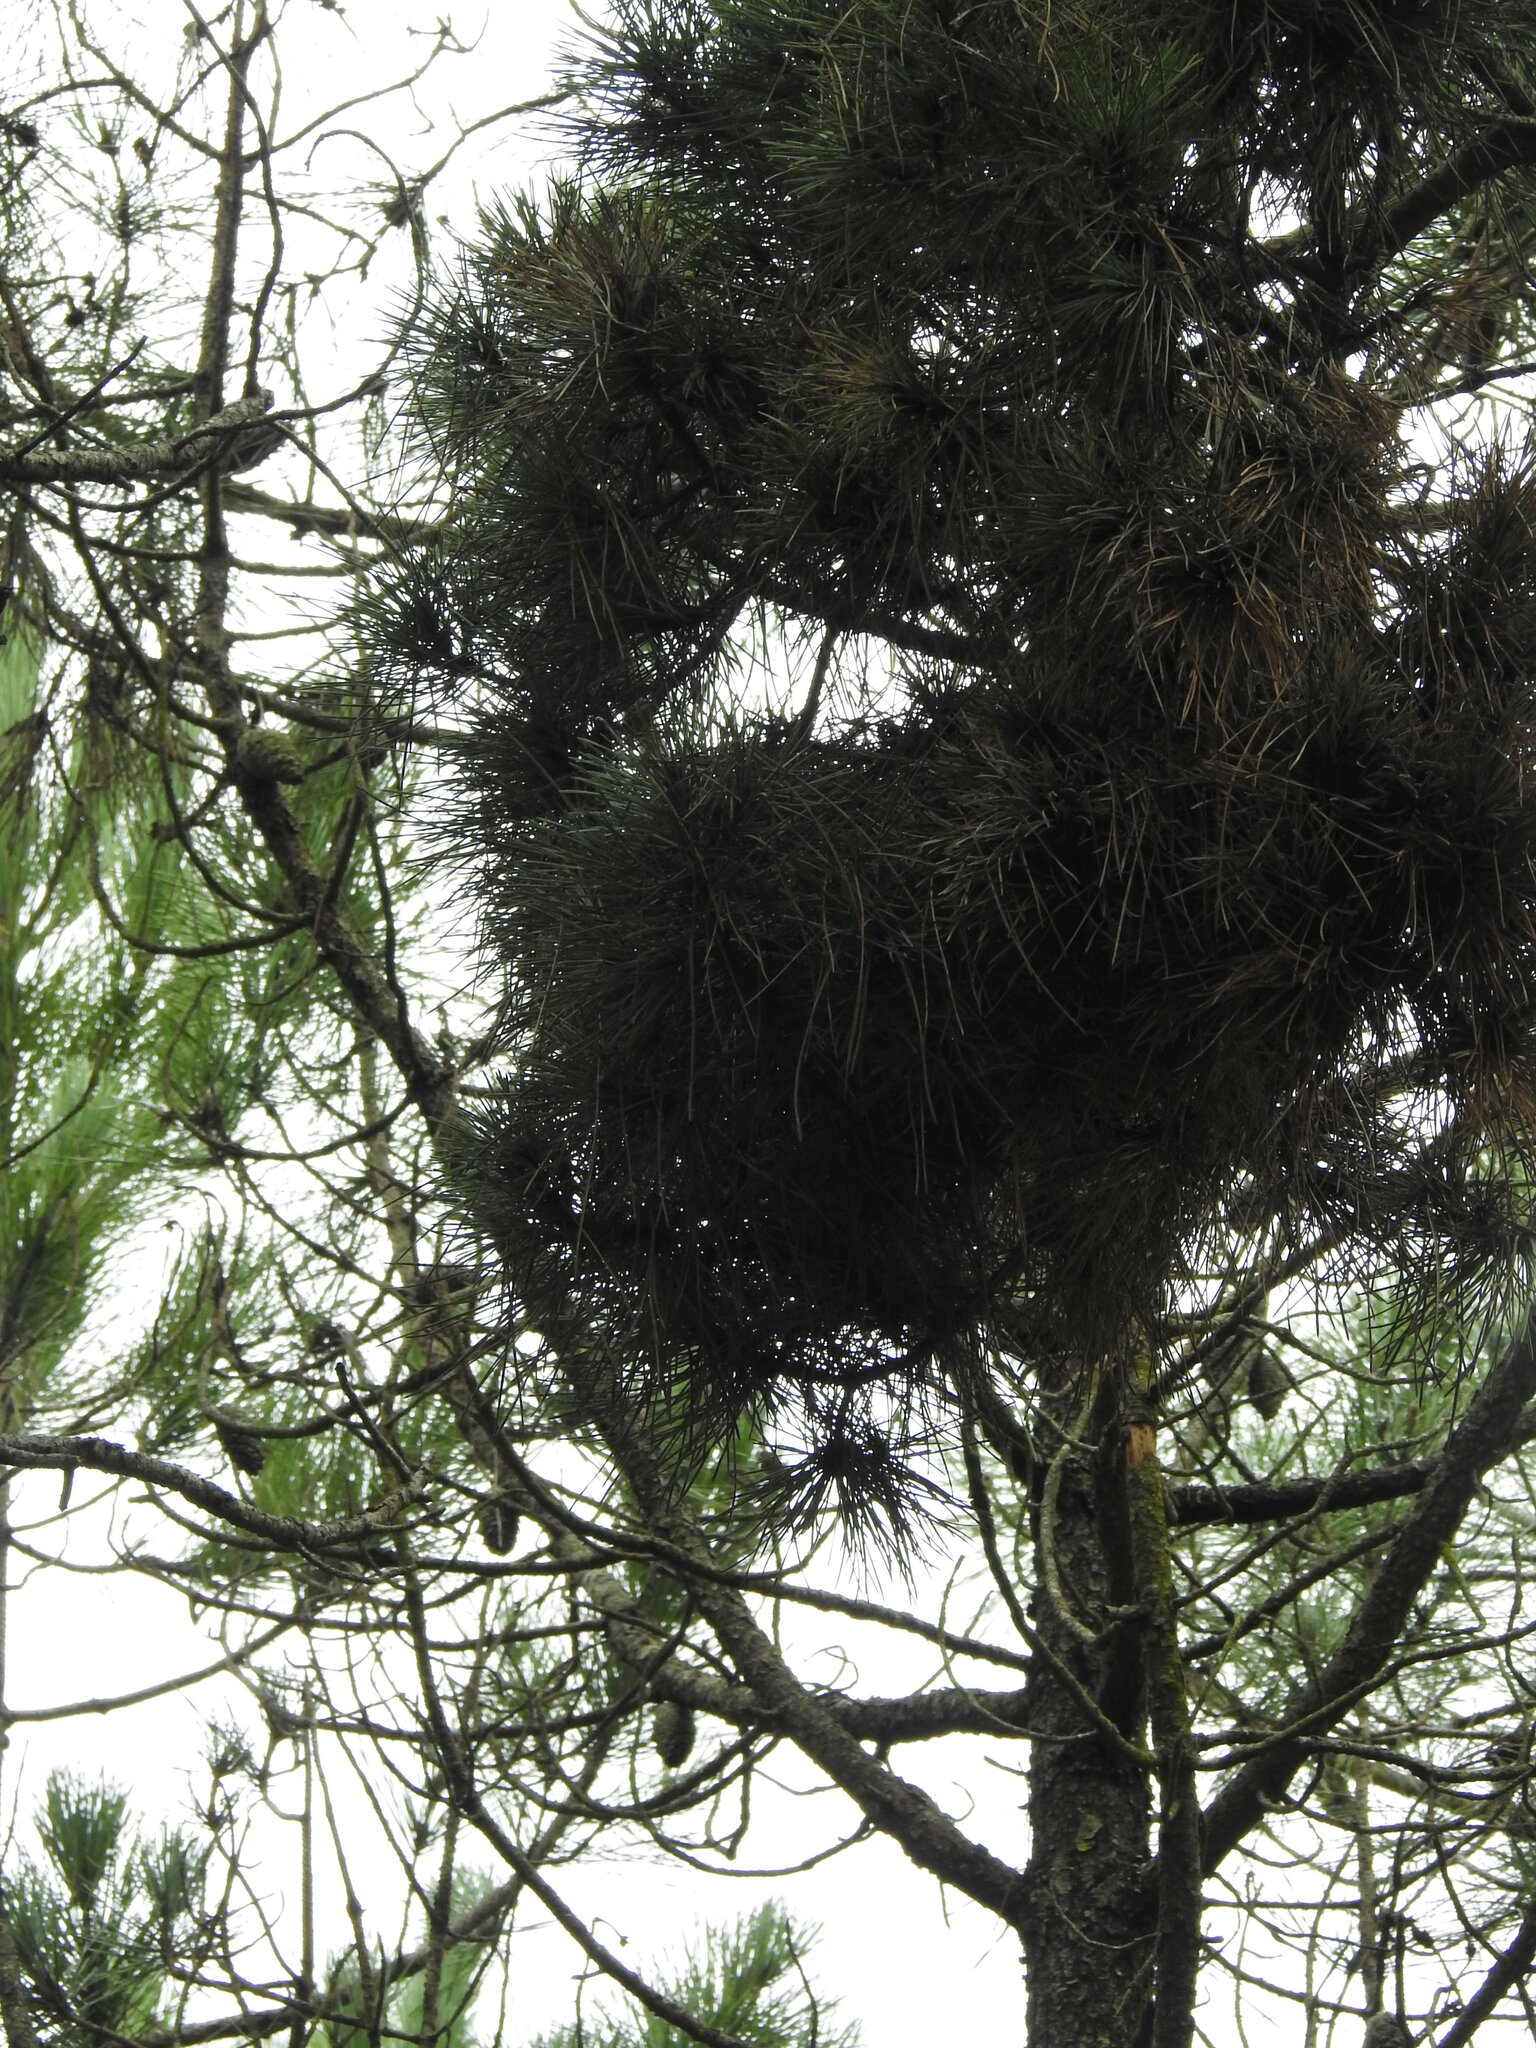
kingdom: Bacteria
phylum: Firmicutes
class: Bacilli
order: Acholeplasmatales
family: Acholeplasmataceae
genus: Phytoplasma
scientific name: Phytoplasma pini
